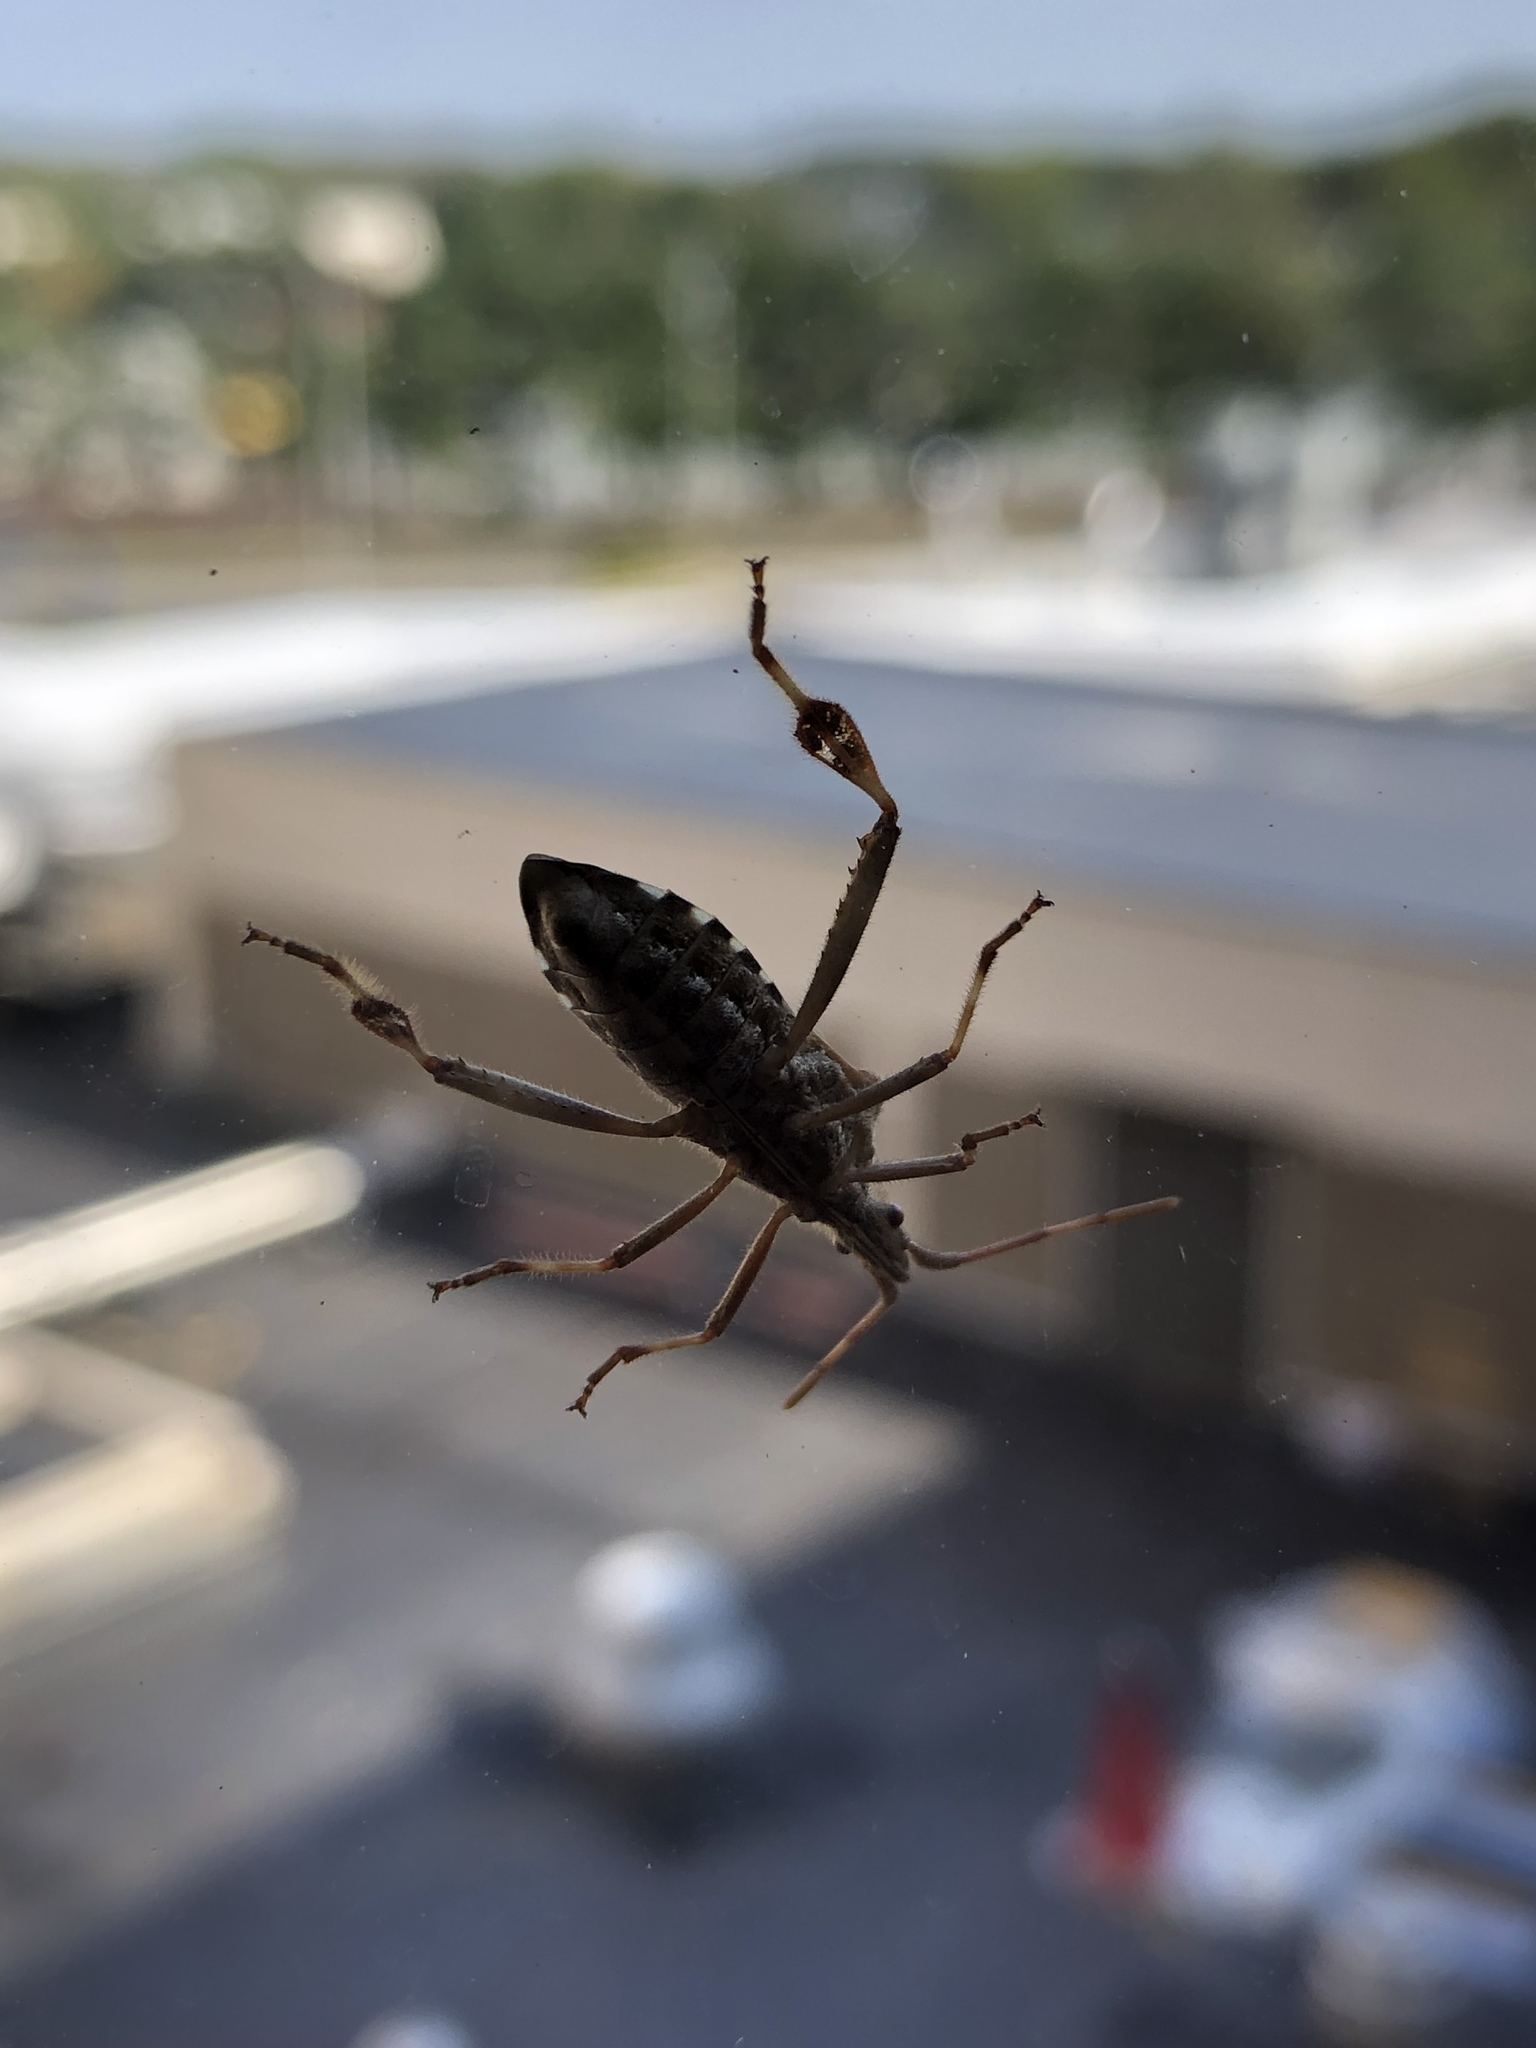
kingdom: Animalia
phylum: Arthropoda
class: Insecta
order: Hemiptera
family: Coreidae
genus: Leptoglossus
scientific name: Leptoglossus occidentalis
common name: Western conifer-seed bug
